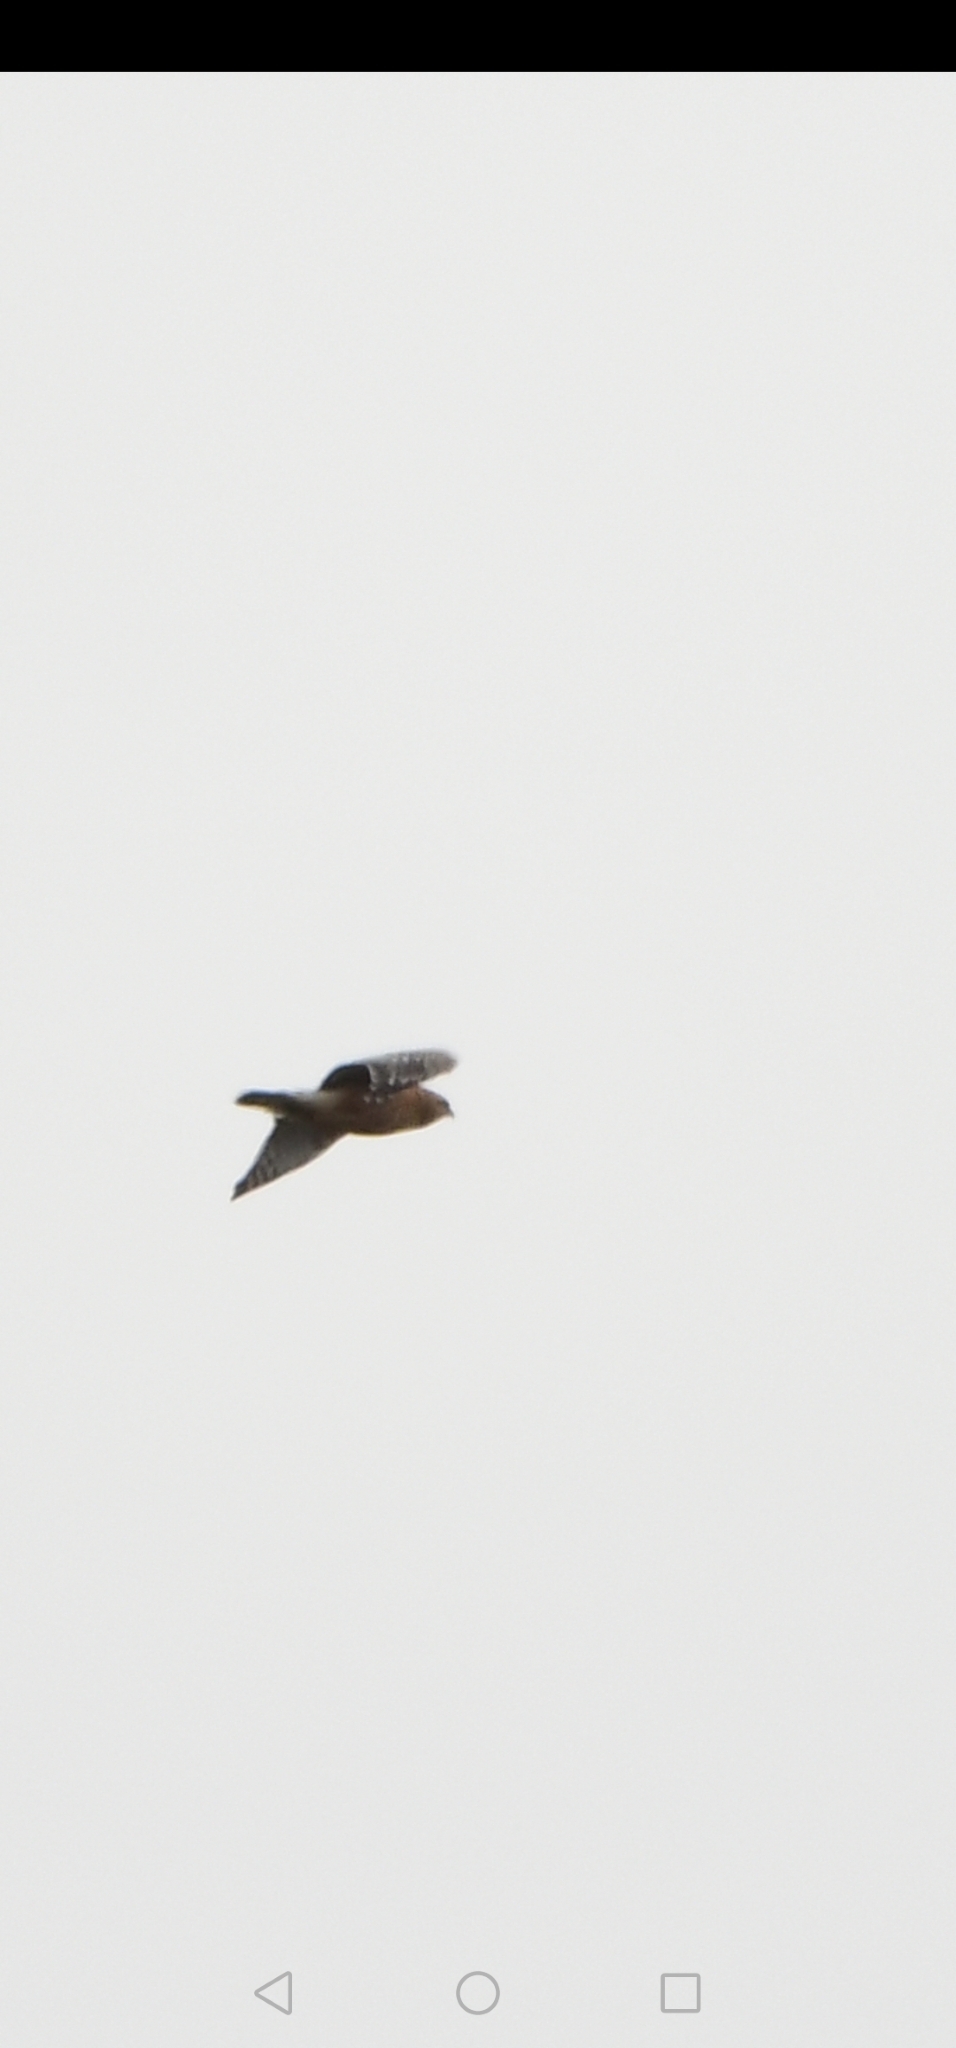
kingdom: Animalia
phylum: Chordata
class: Aves
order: Accipitriformes
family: Accipitridae
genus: Buteo
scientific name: Buteo lineatus
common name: Red-shouldered hawk
